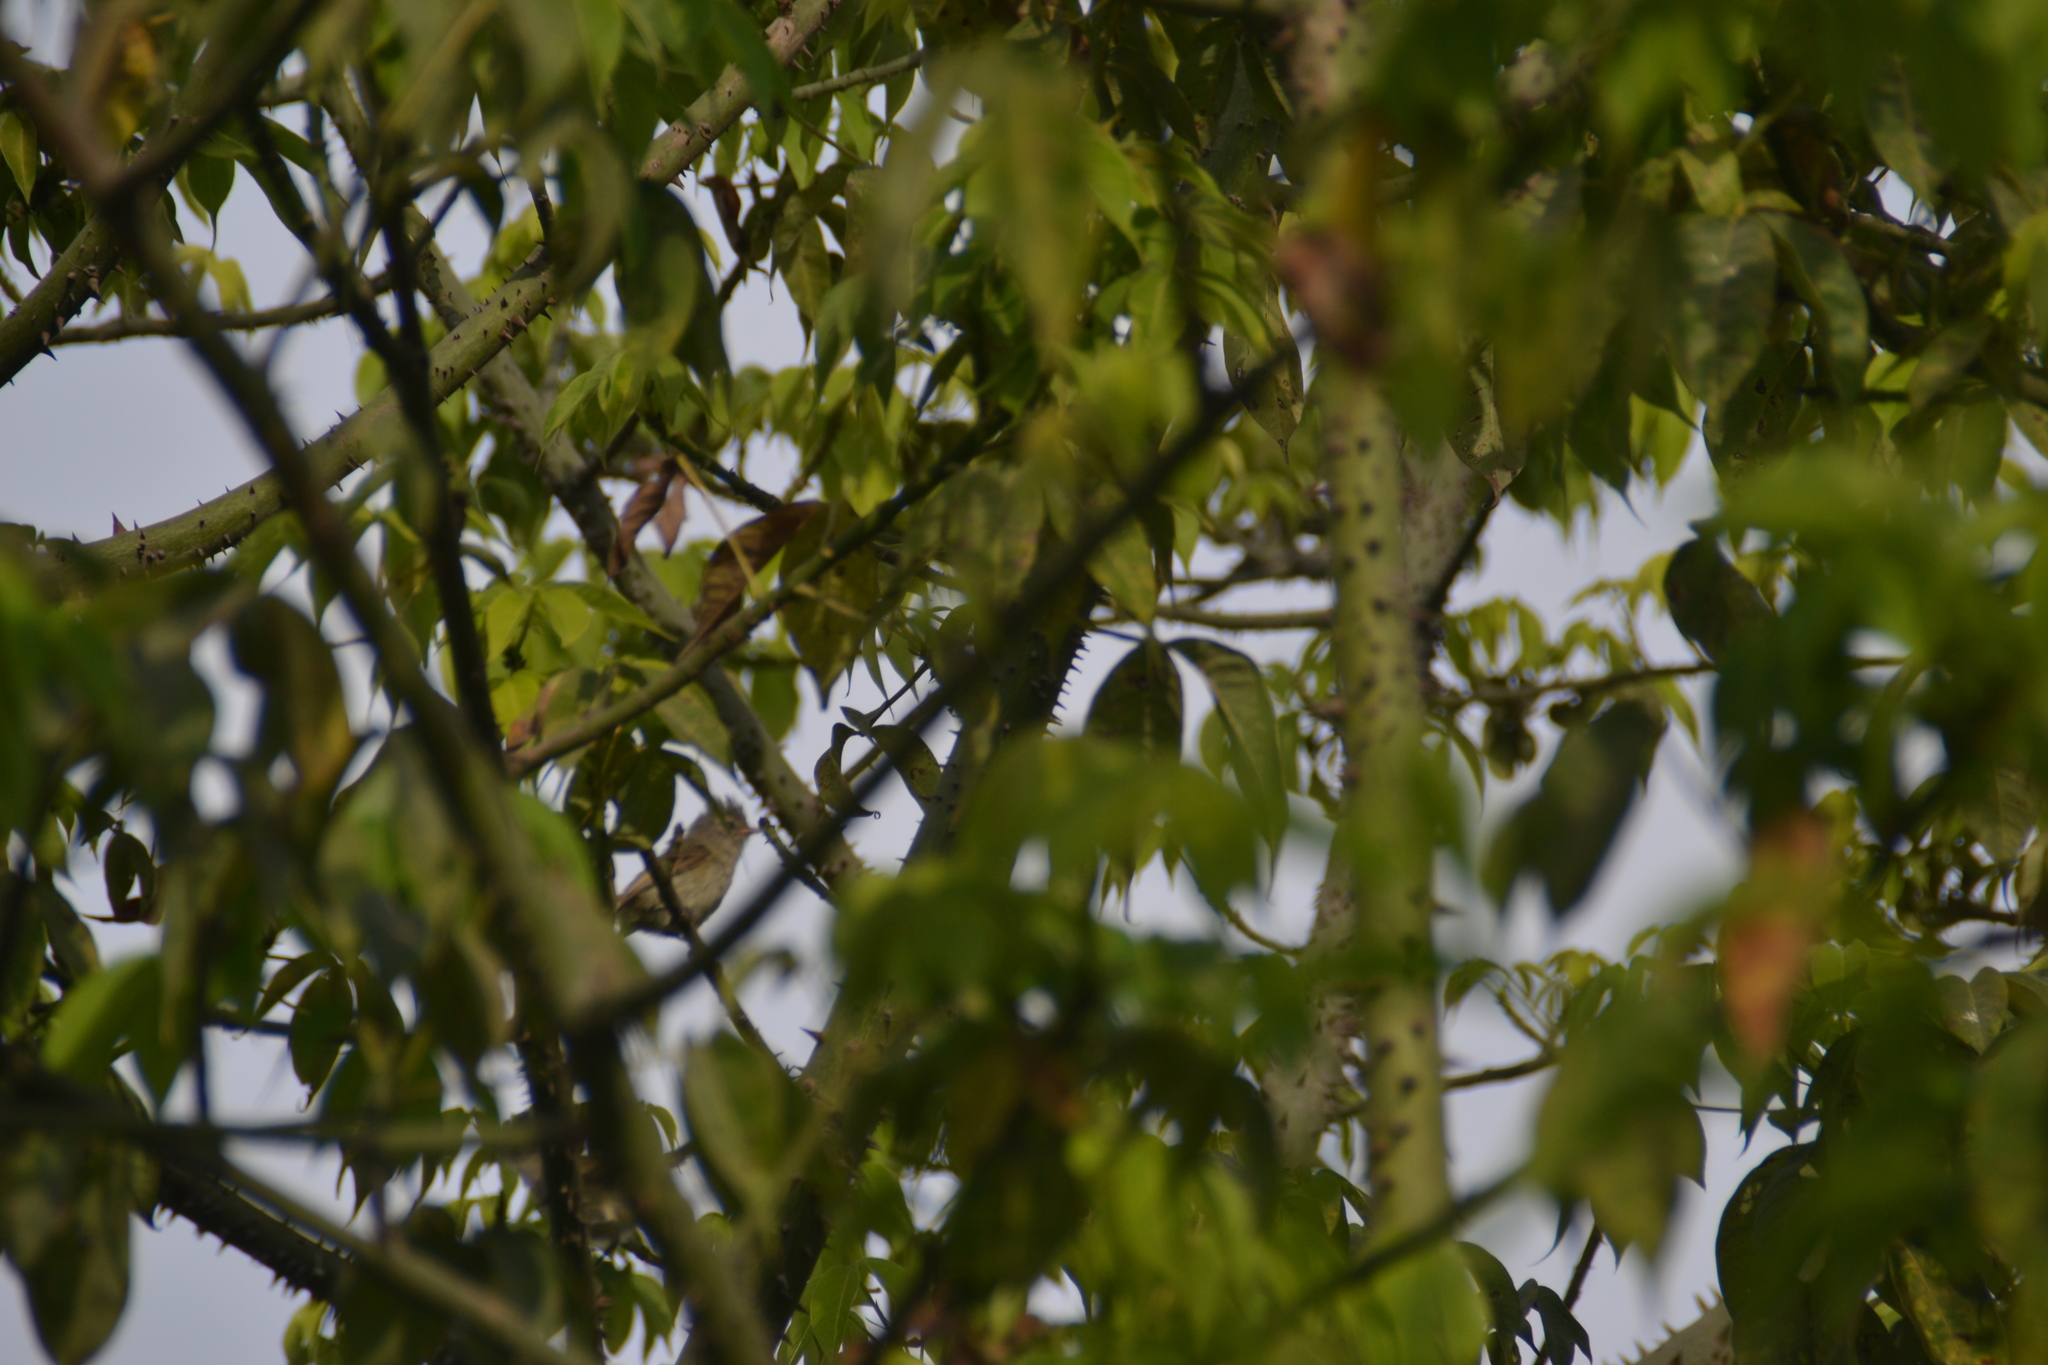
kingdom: Animalia
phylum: Chordata
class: Aves
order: Passeriformes
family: Tyrannidae
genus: Camptostoma
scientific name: Camptostoma obsoletum
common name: Southern beardless-tyrannulet
